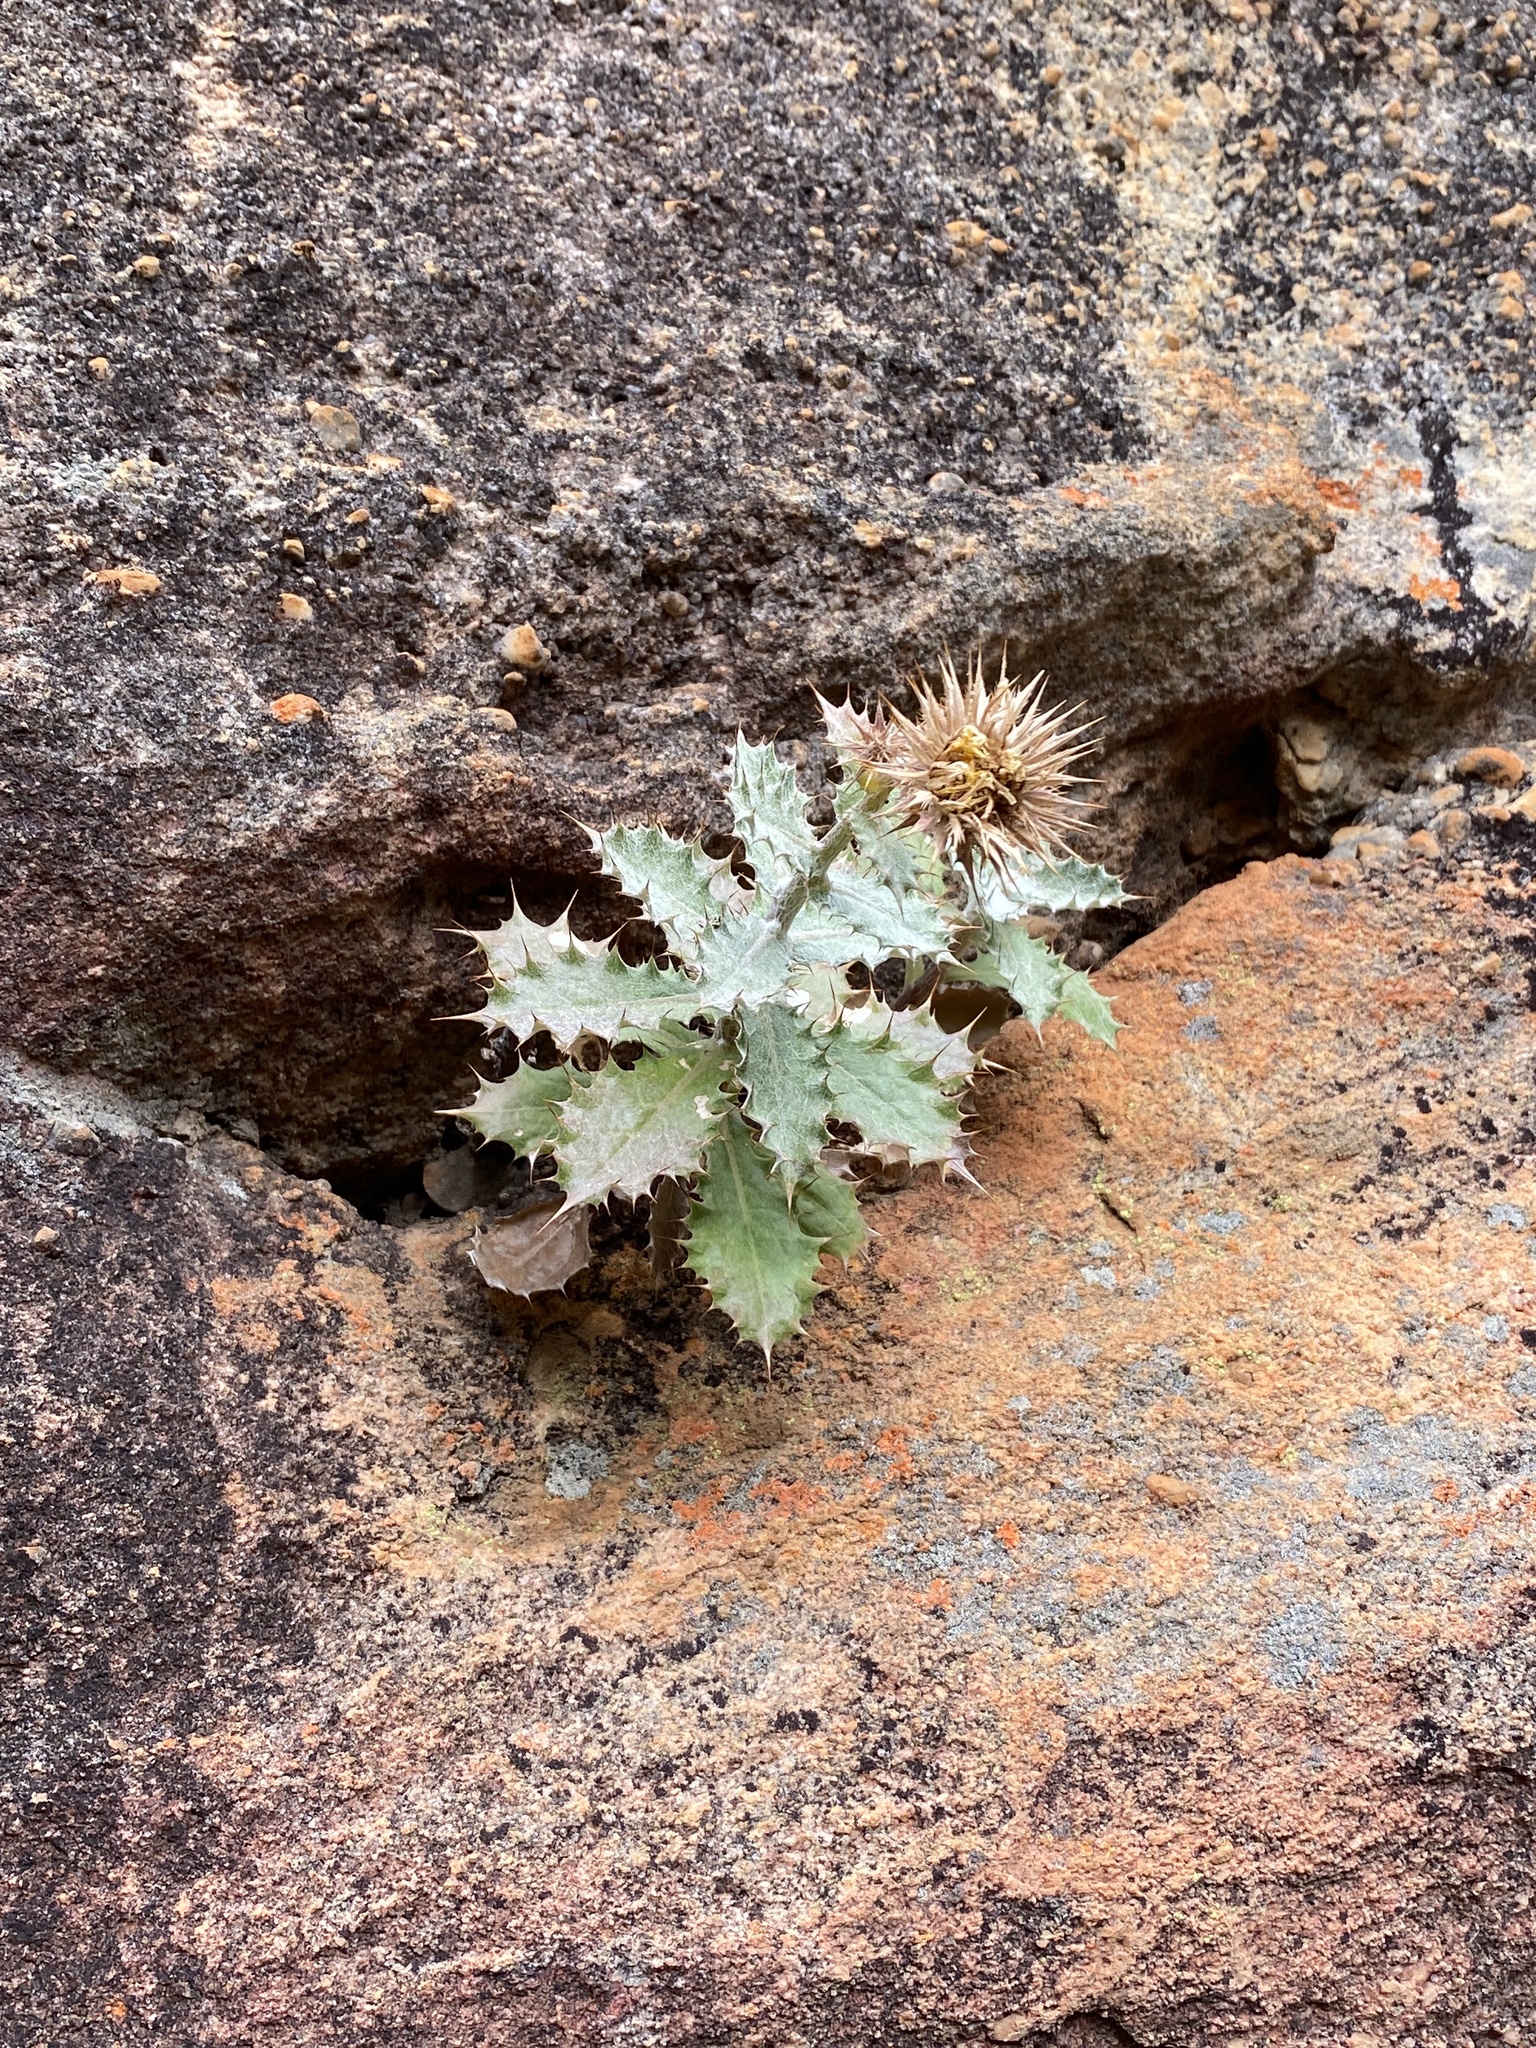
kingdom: Plantae
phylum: Tracheophyta
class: Magnoliopsida
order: Asterales
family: Asteraceae
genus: Berkheya
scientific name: Berkheya dregei
